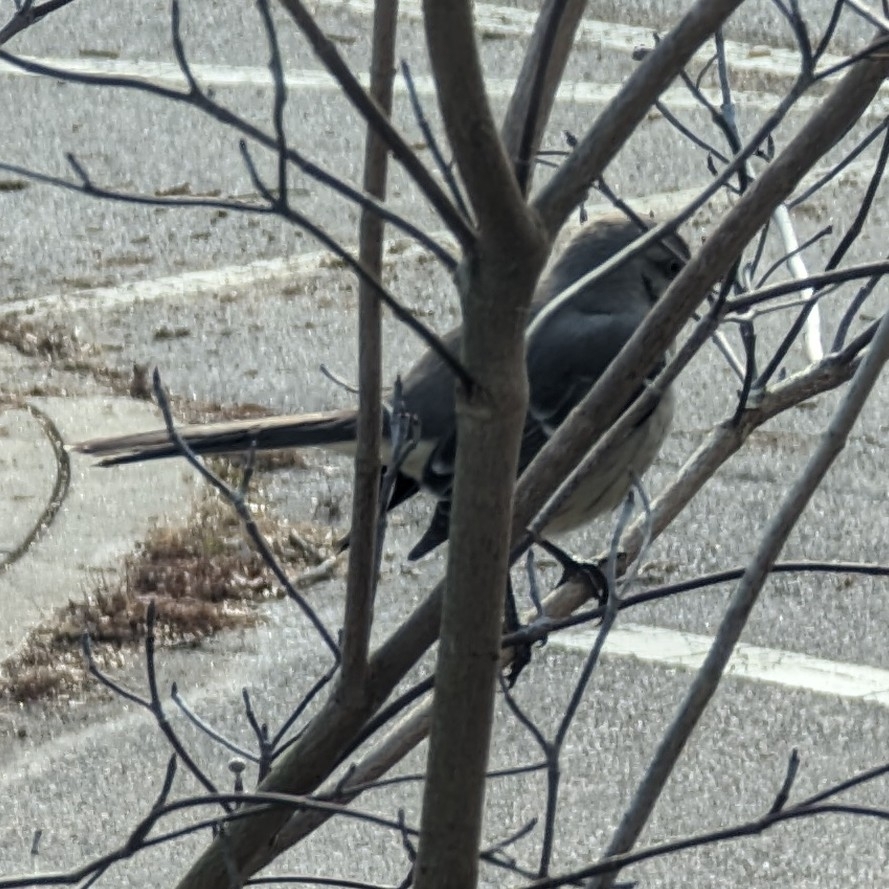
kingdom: Animalia
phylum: Chordata
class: Aves
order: Passeriformes
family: Mimidae
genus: Mimus
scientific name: Mimus polyglottos
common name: Northern mockingbird
